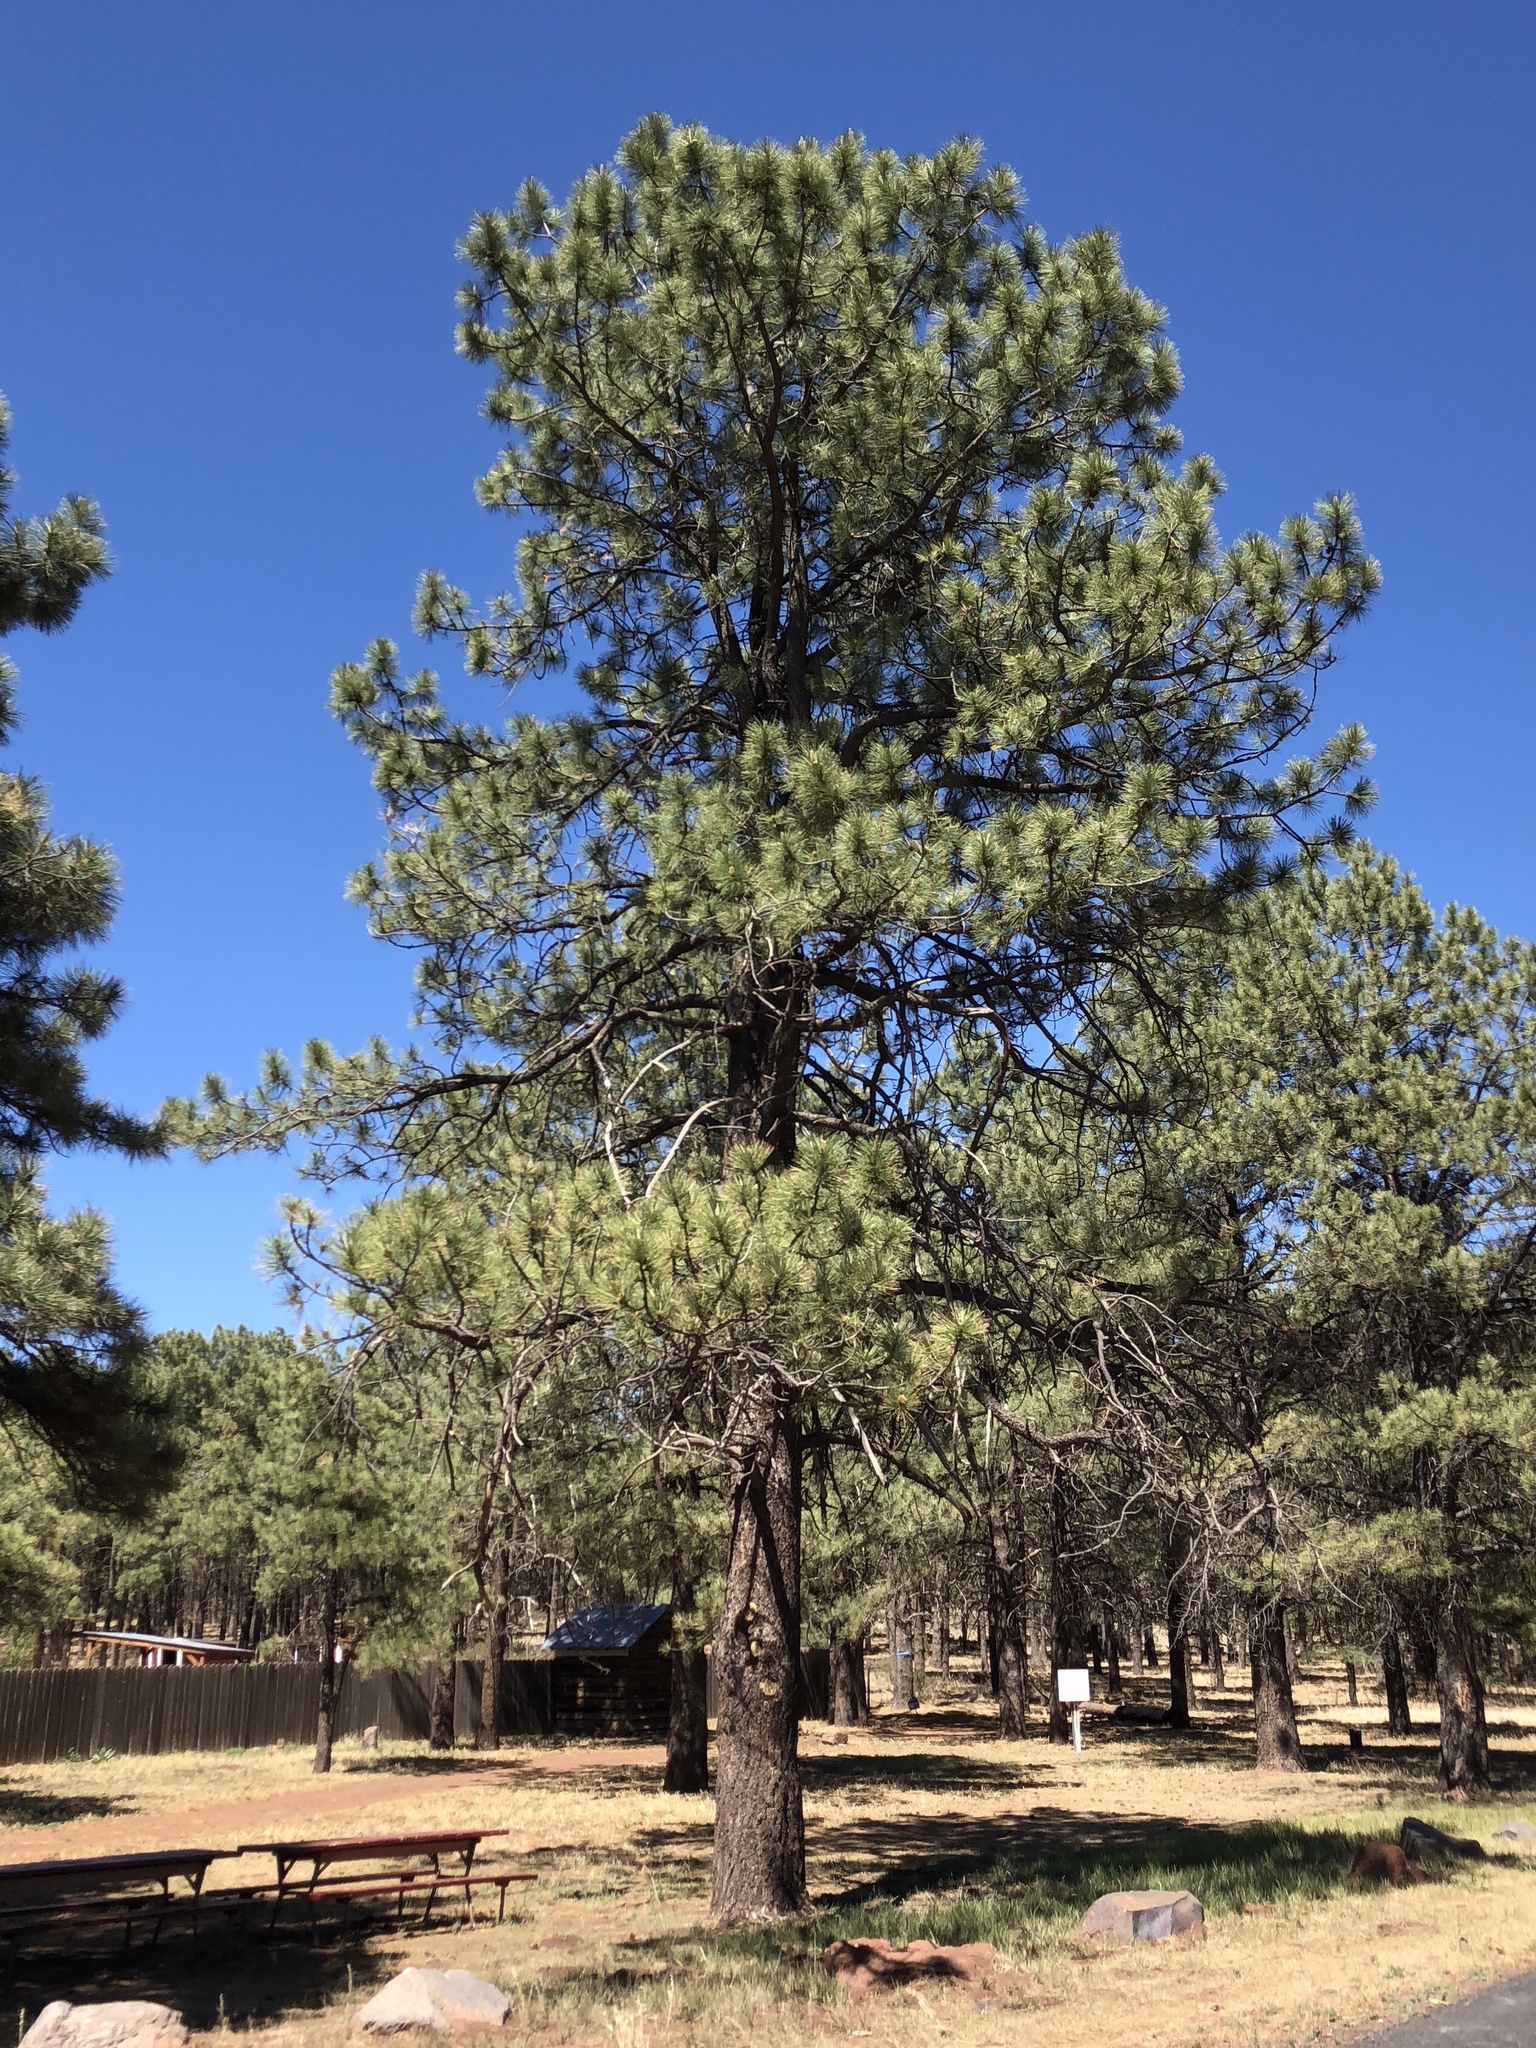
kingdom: Plantae
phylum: Tracheophyta
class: Pinopsida
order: Pinales
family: Pinaceae
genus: Pinus
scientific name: Pinus ponderosa
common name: Western yellow-pine
